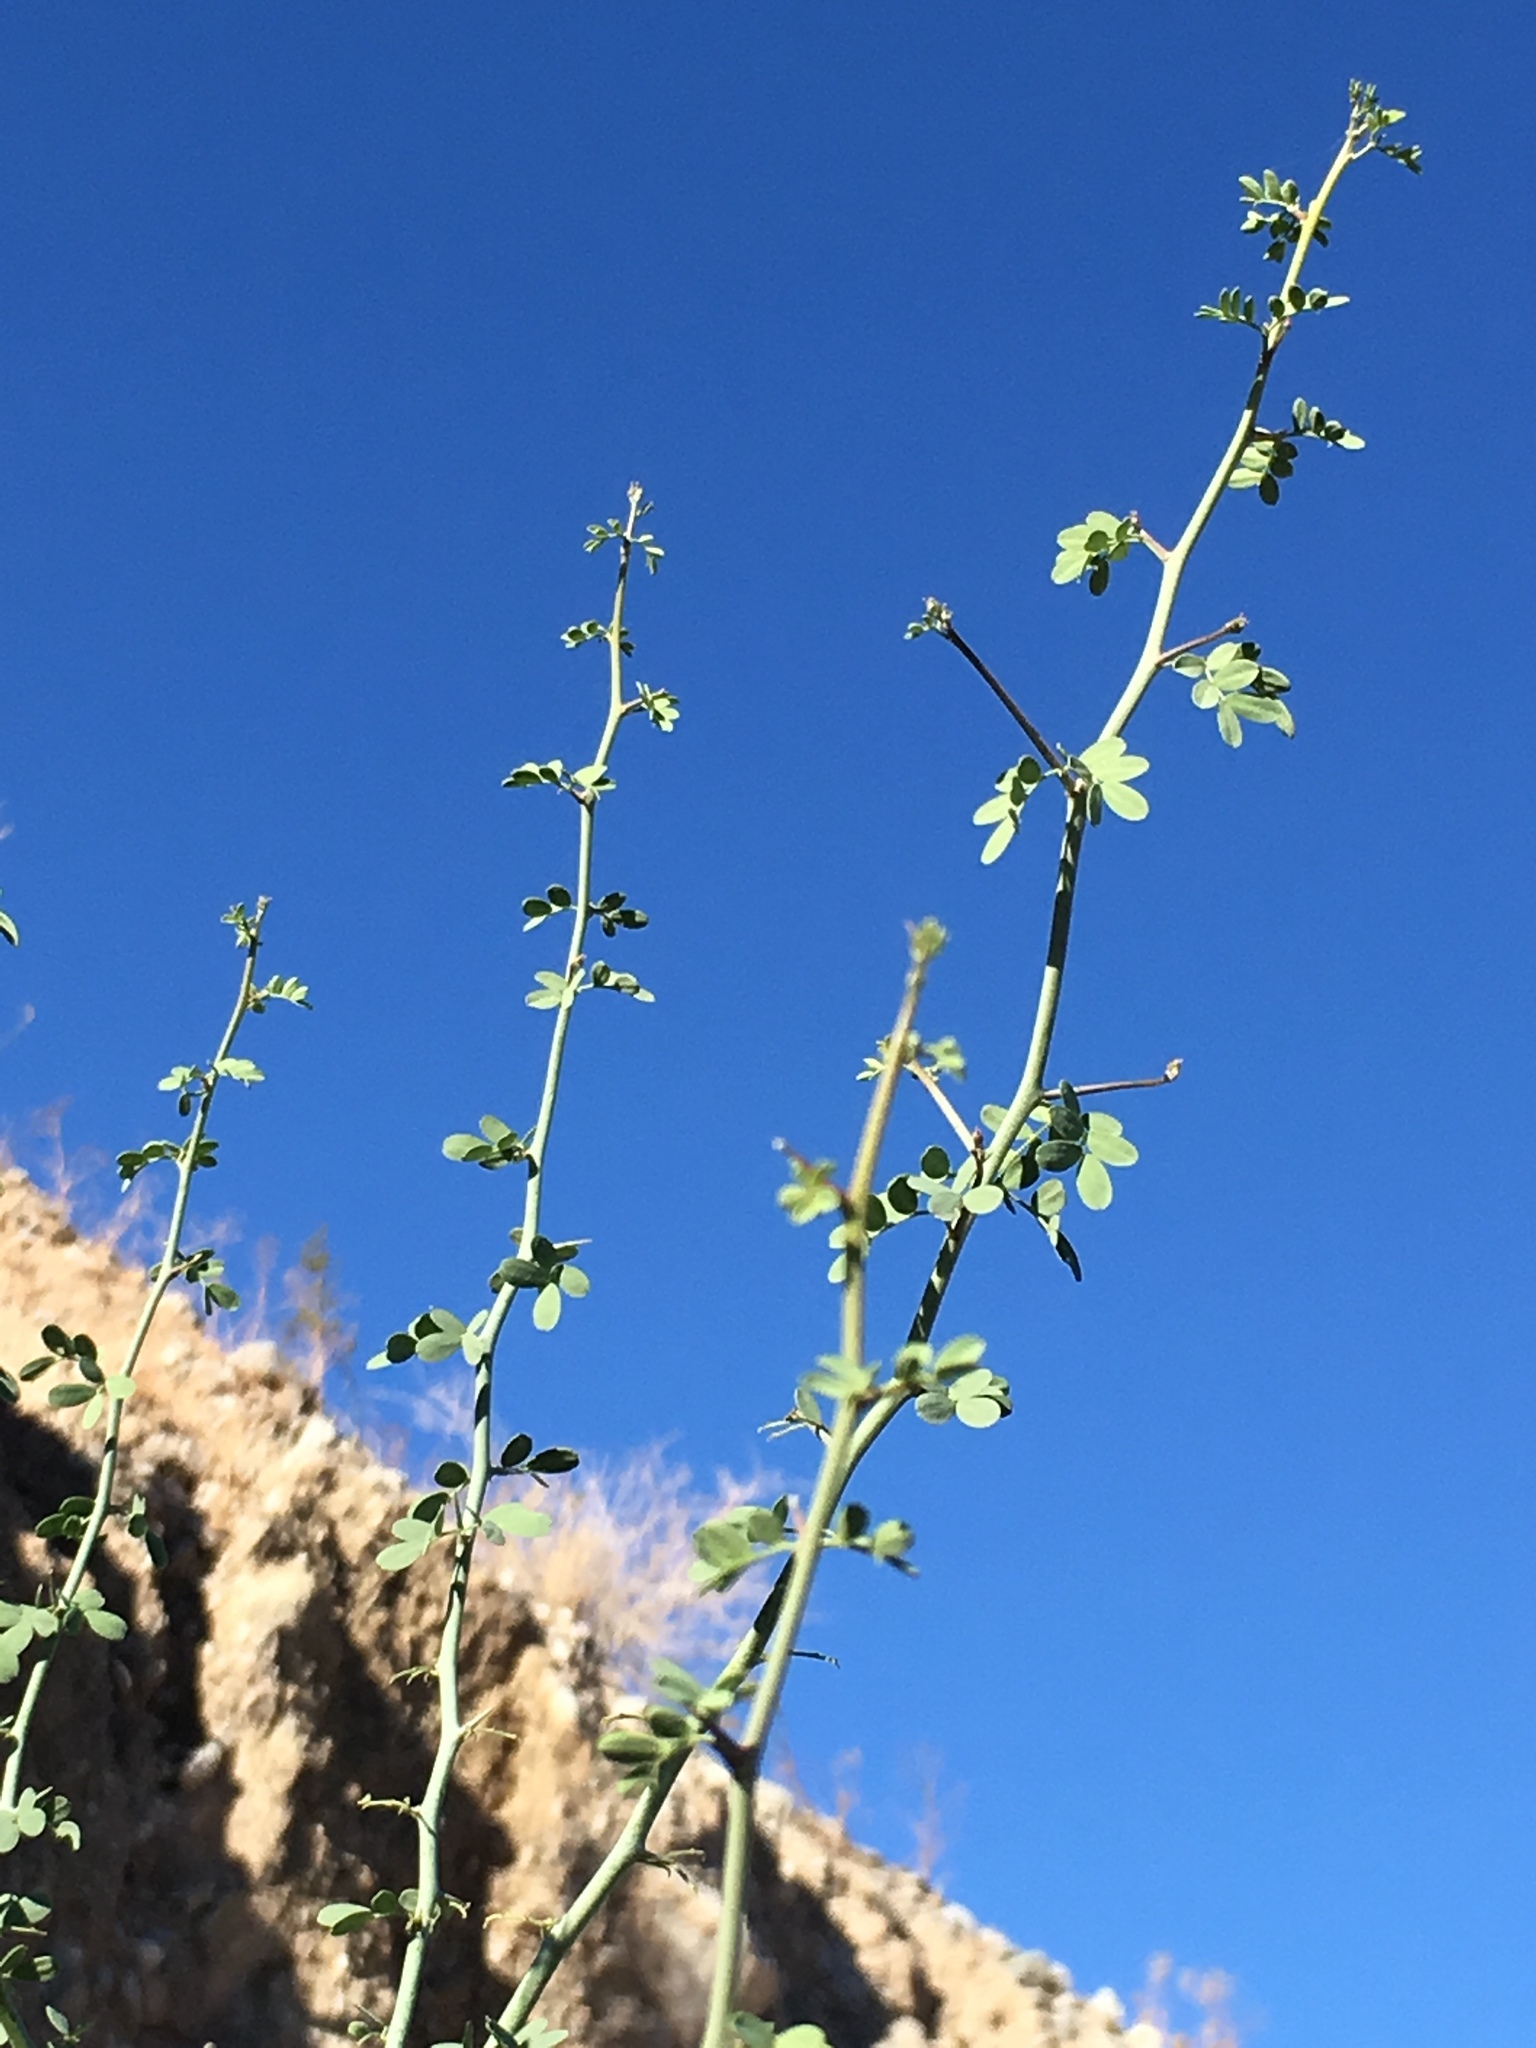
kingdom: Plantae
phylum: Tracheophyta
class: Magnoliopsida
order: Fabales
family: Fabaceae
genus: Parkinsonia
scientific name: Parkinsonia florida
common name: Blue paloverde
